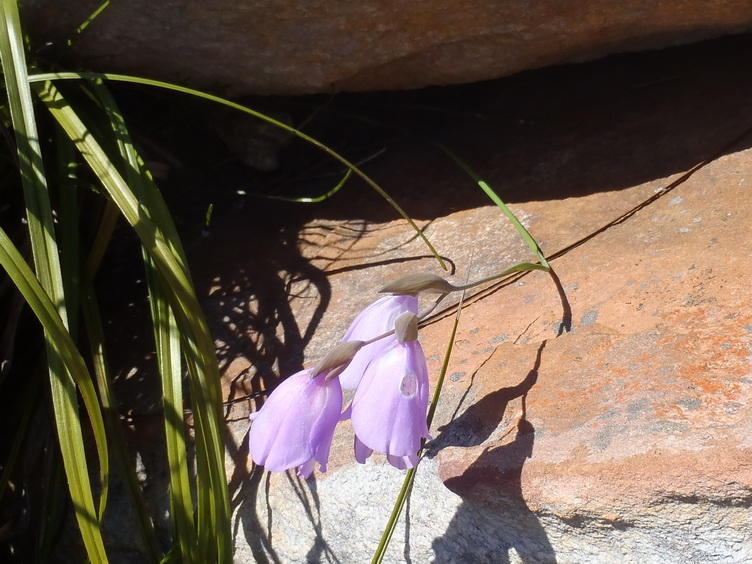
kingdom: Plantae
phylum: Tracheophyta
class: Liliopsida
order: Asparagales
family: Iridaceae
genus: Gladiolus
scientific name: Gladiolus patersoniae
